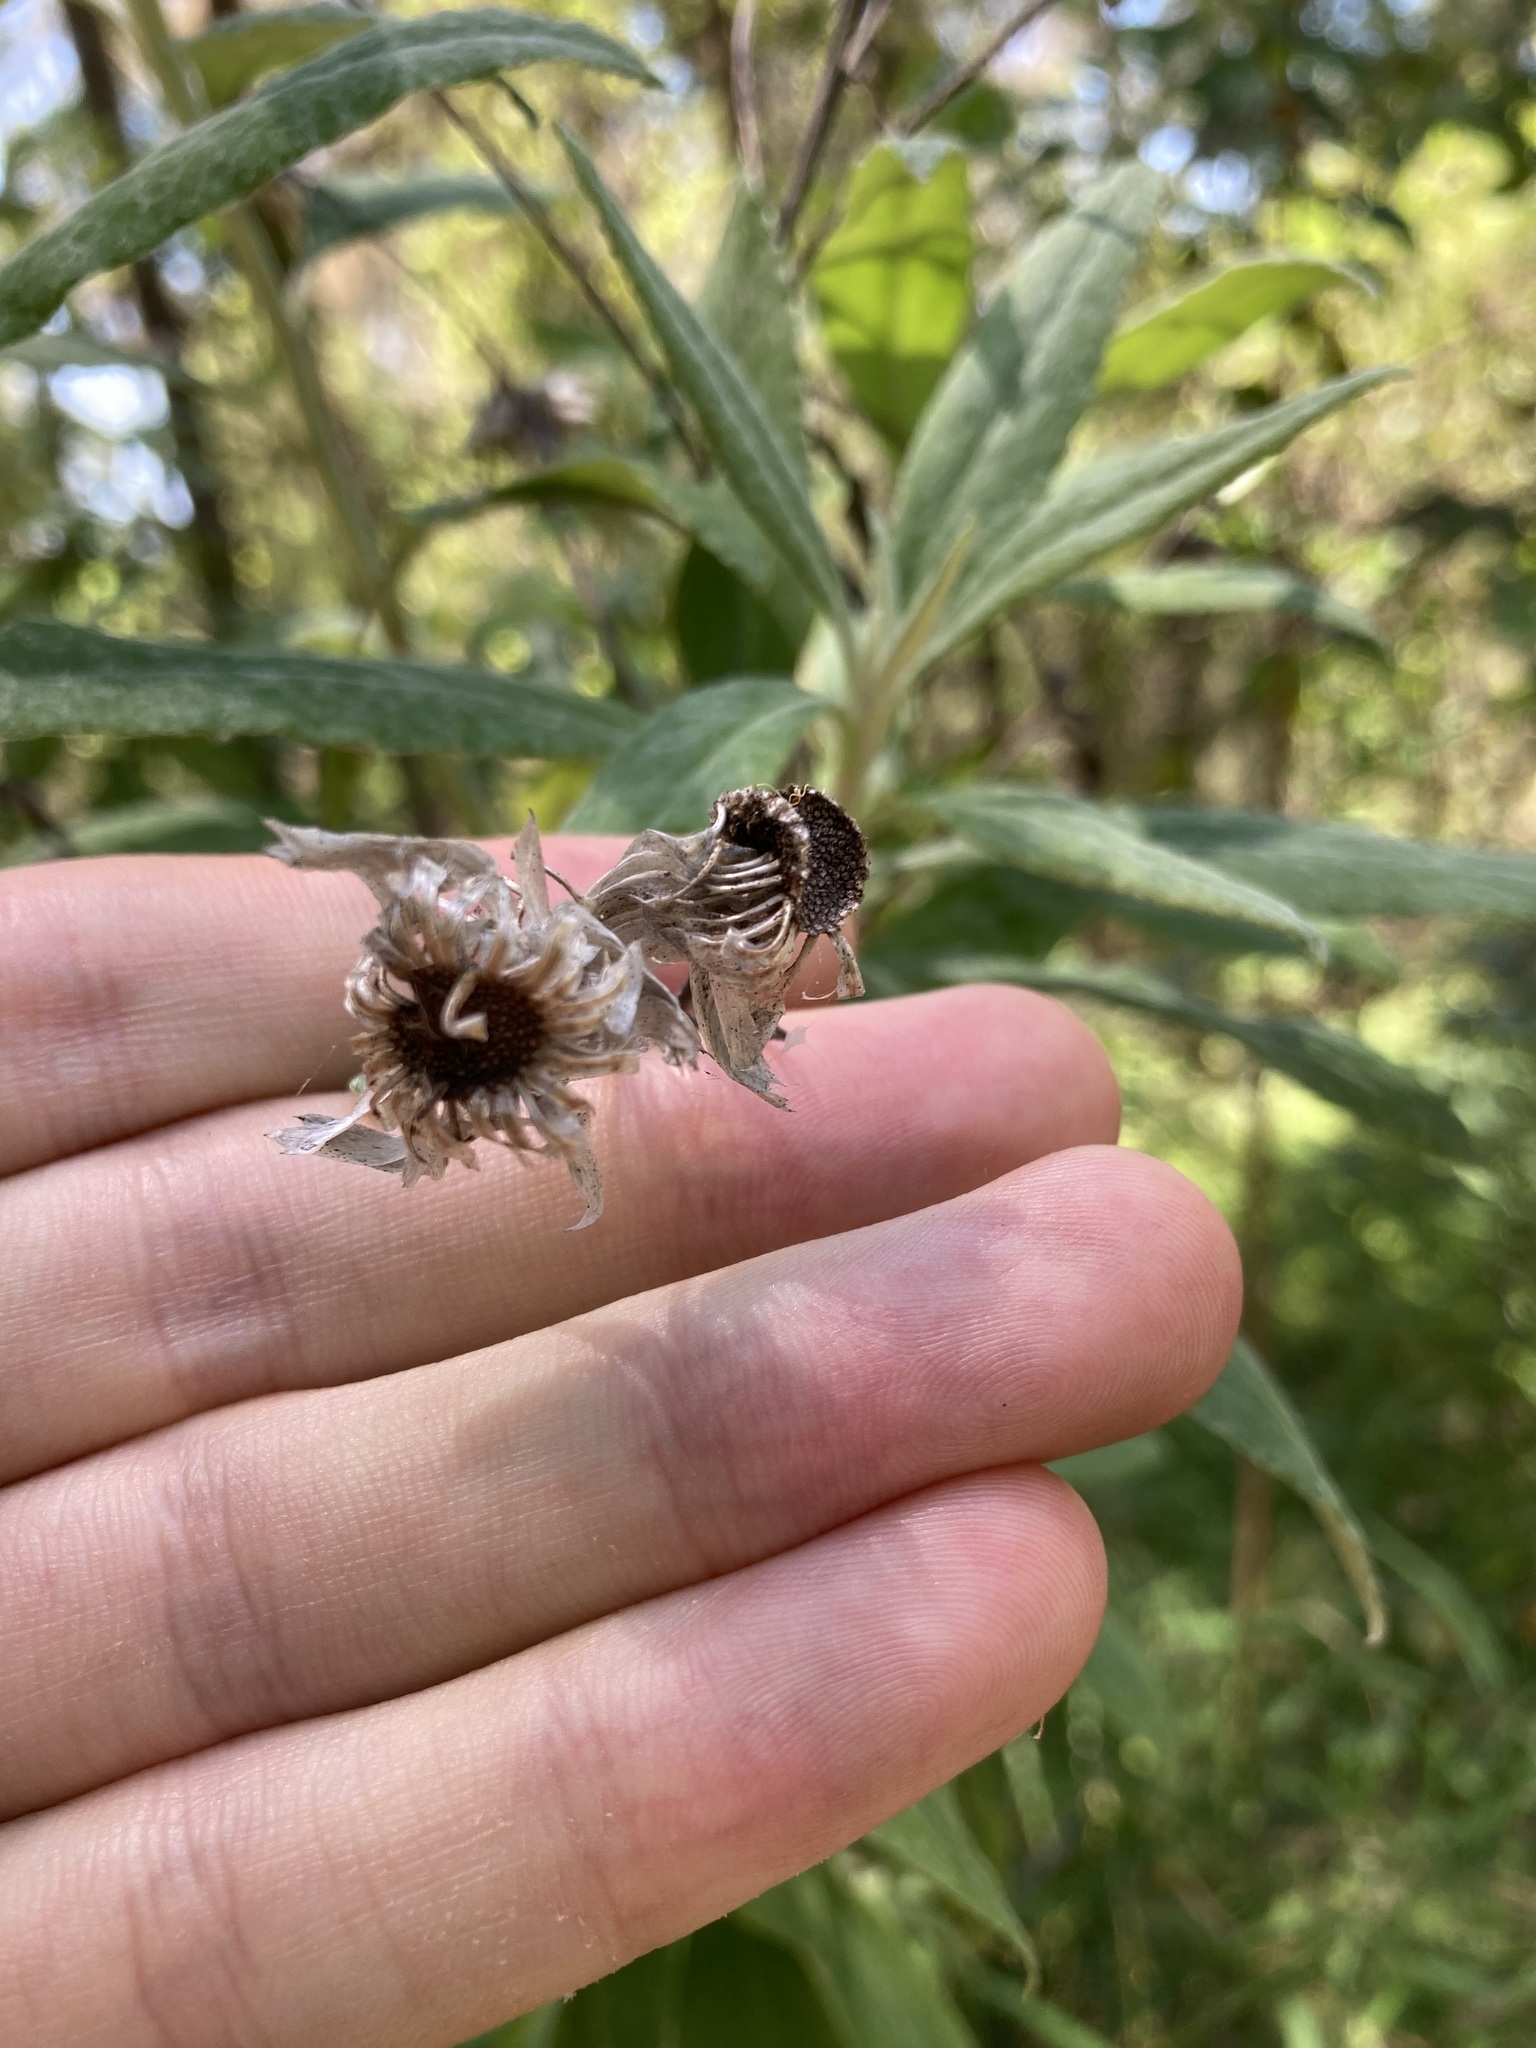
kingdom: Plantae
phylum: Tracheophyta
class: Magnoliopsida
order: Asterales
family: Asteraceae
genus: Leucozoma
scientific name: Leucozoma elatum
